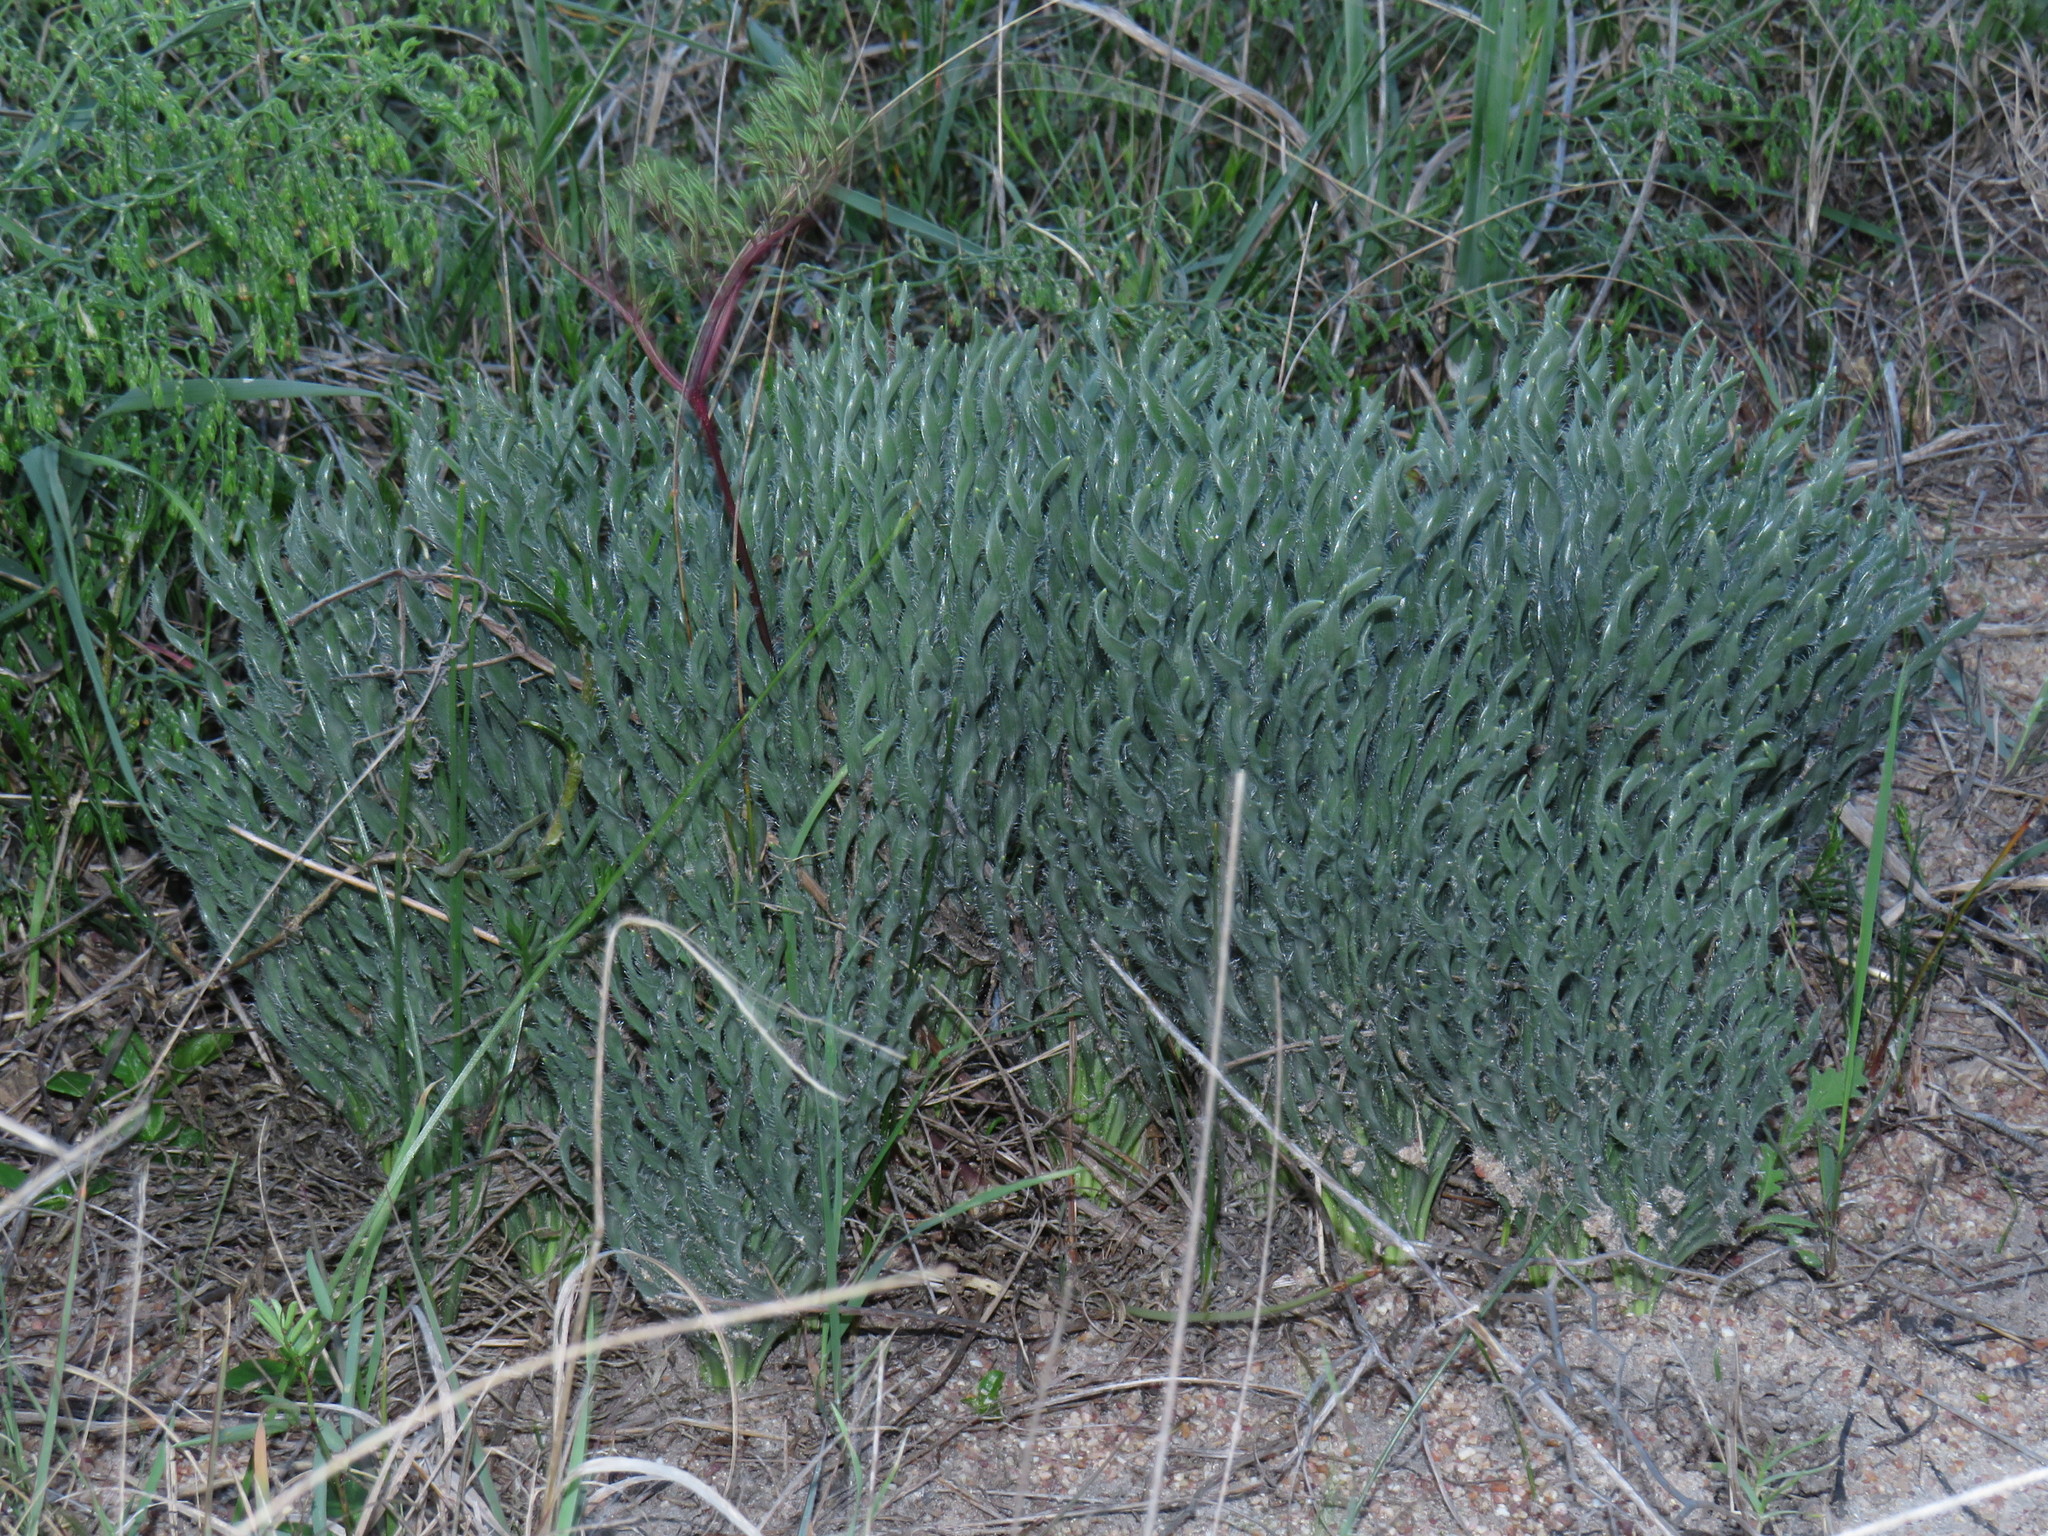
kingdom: Plantae
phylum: Tracheophyta
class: Liliopsida
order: Asparagales
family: Amaryllidaceae
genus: Gethyllis
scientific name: Gethyllis ciliaris
